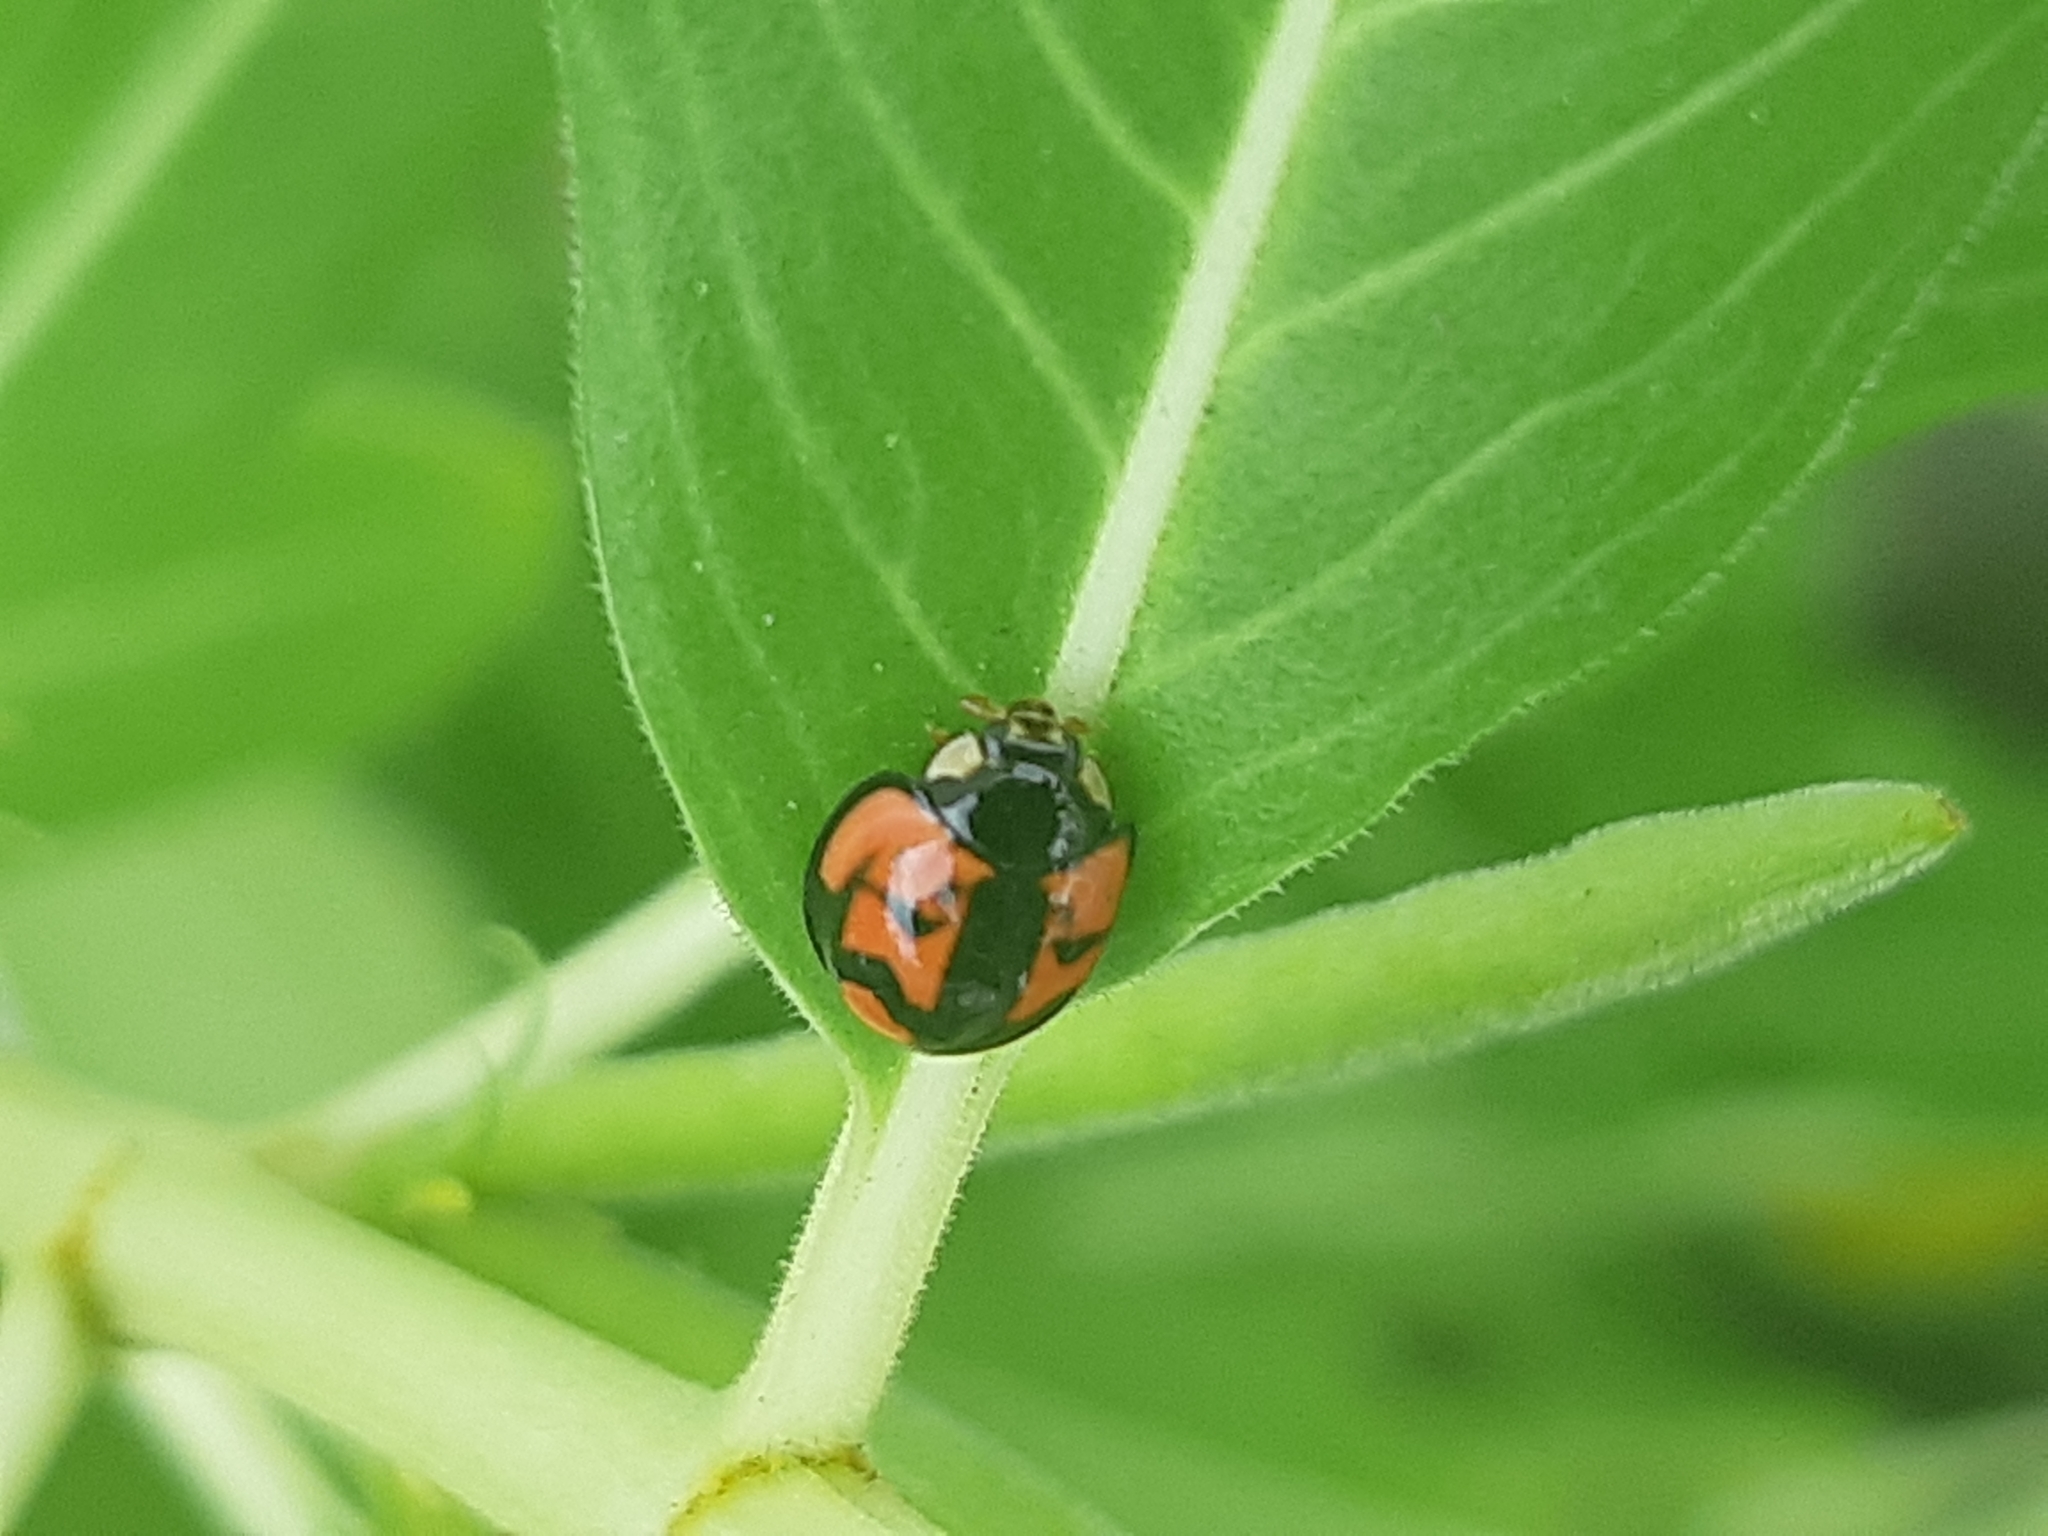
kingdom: Animalia
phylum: Arthropoda
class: Insecta
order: Coleoptera
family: Coccinellidae
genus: Cheilomenes
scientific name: Cheilomenes sexmaculata
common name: Ladybird beetle
